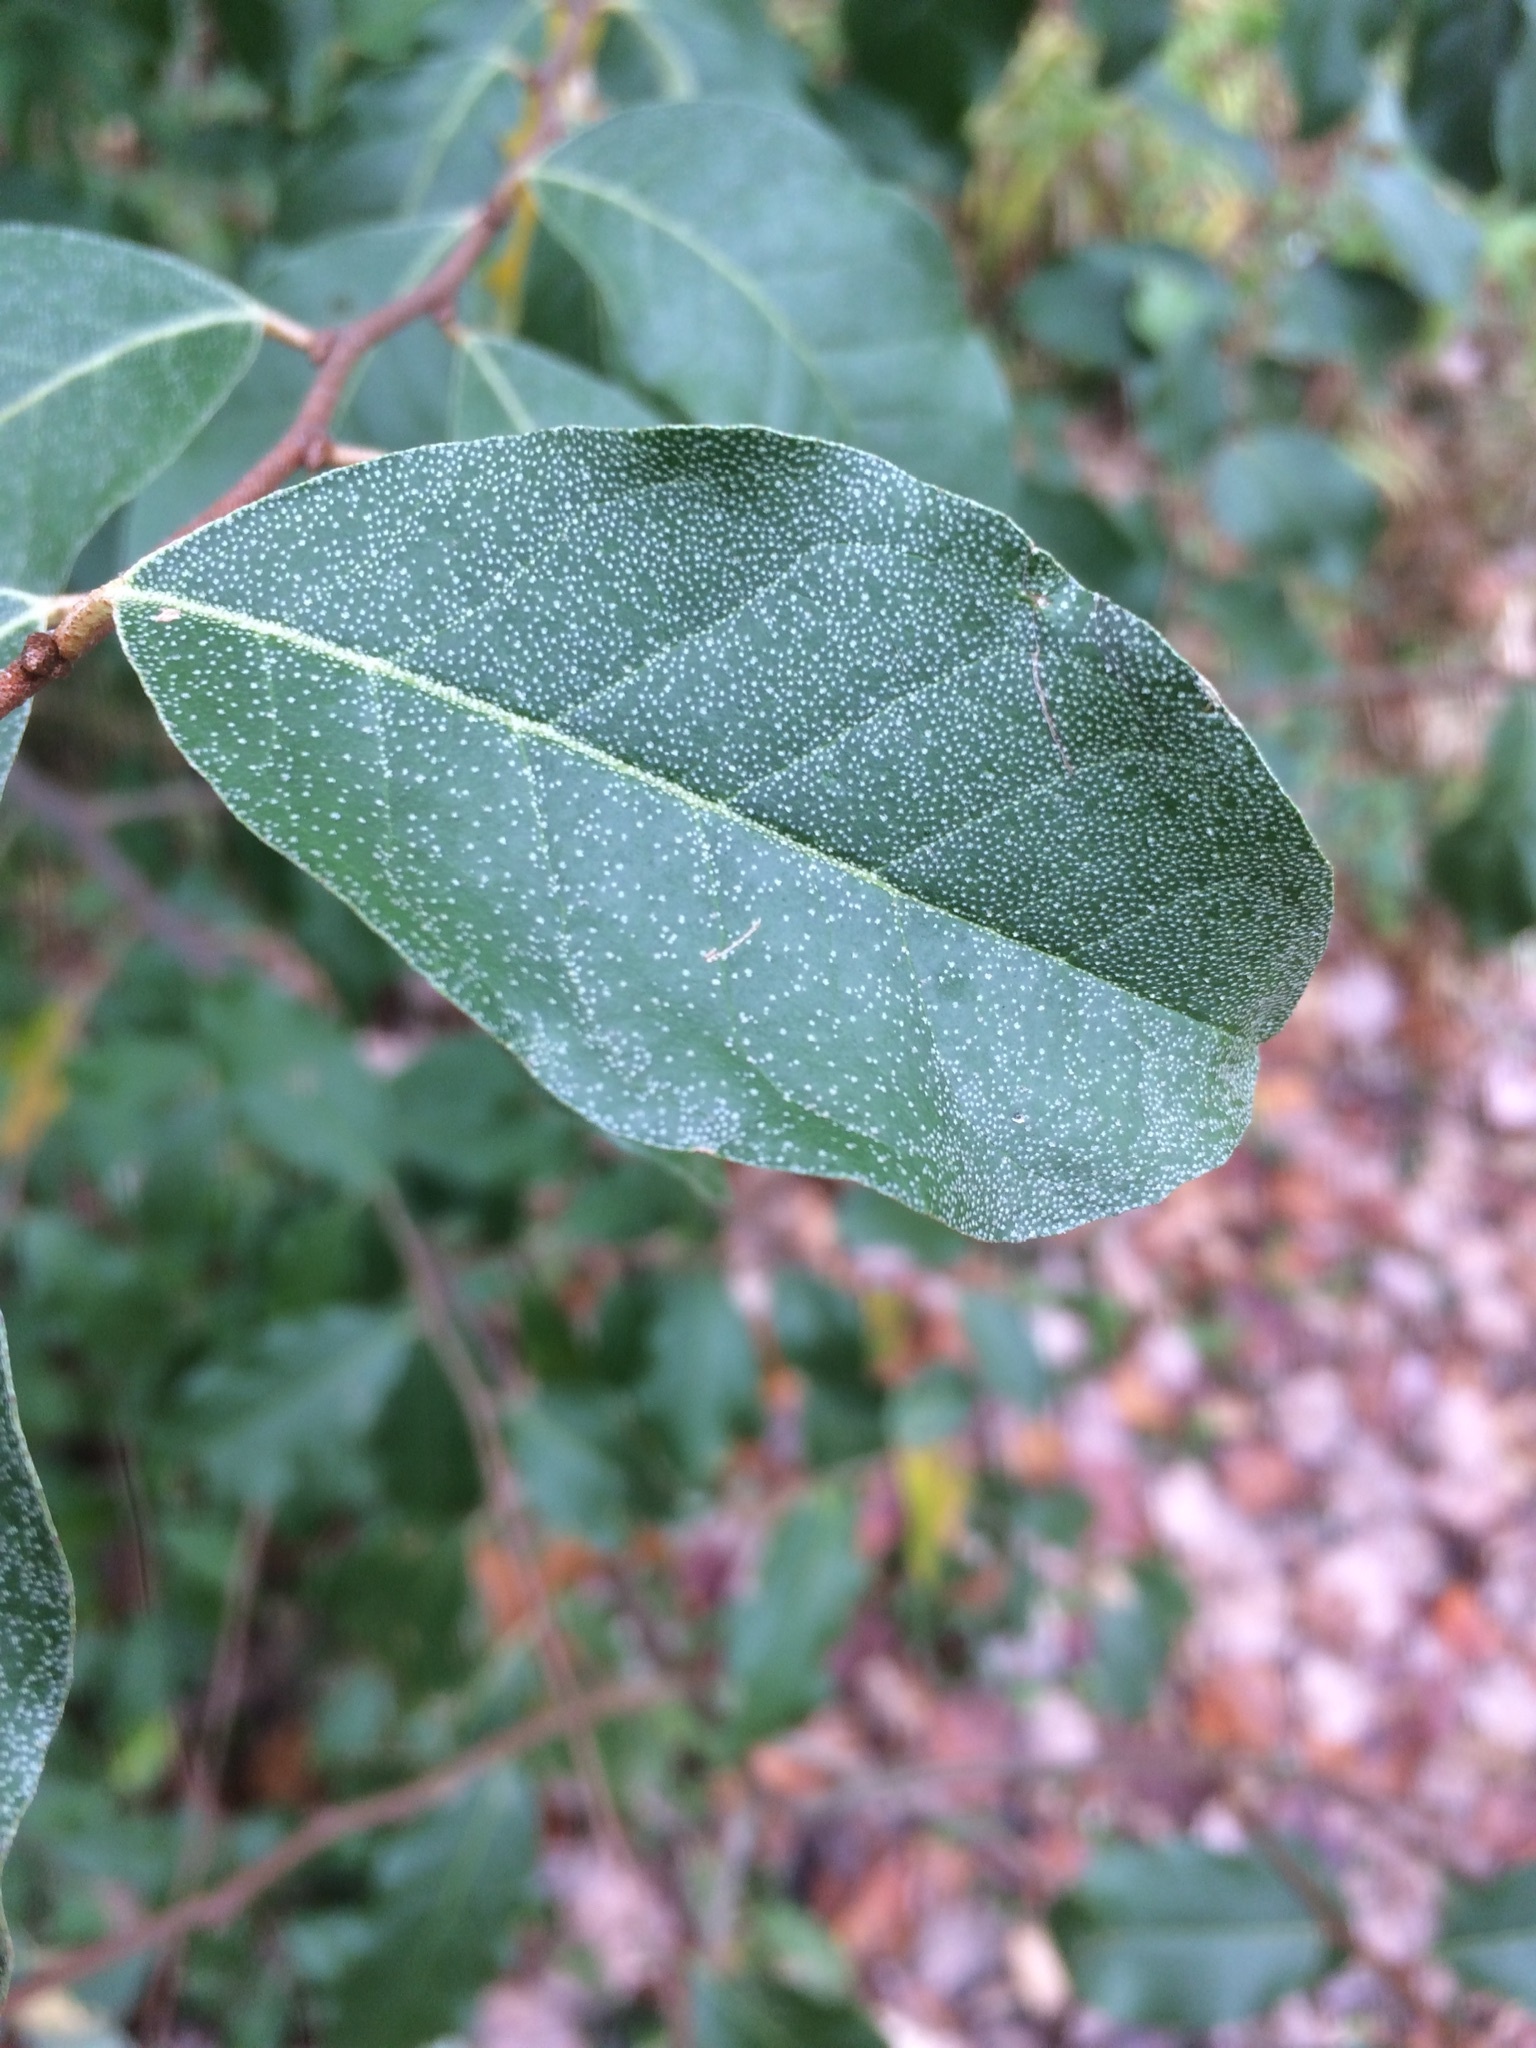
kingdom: Plantae
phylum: Tracheophyta
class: Magnoliopsida
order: Rosales
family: Elaeagnaceae
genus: Elaeagnus
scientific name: Elaeagnus umbellata
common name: Autumn olive
